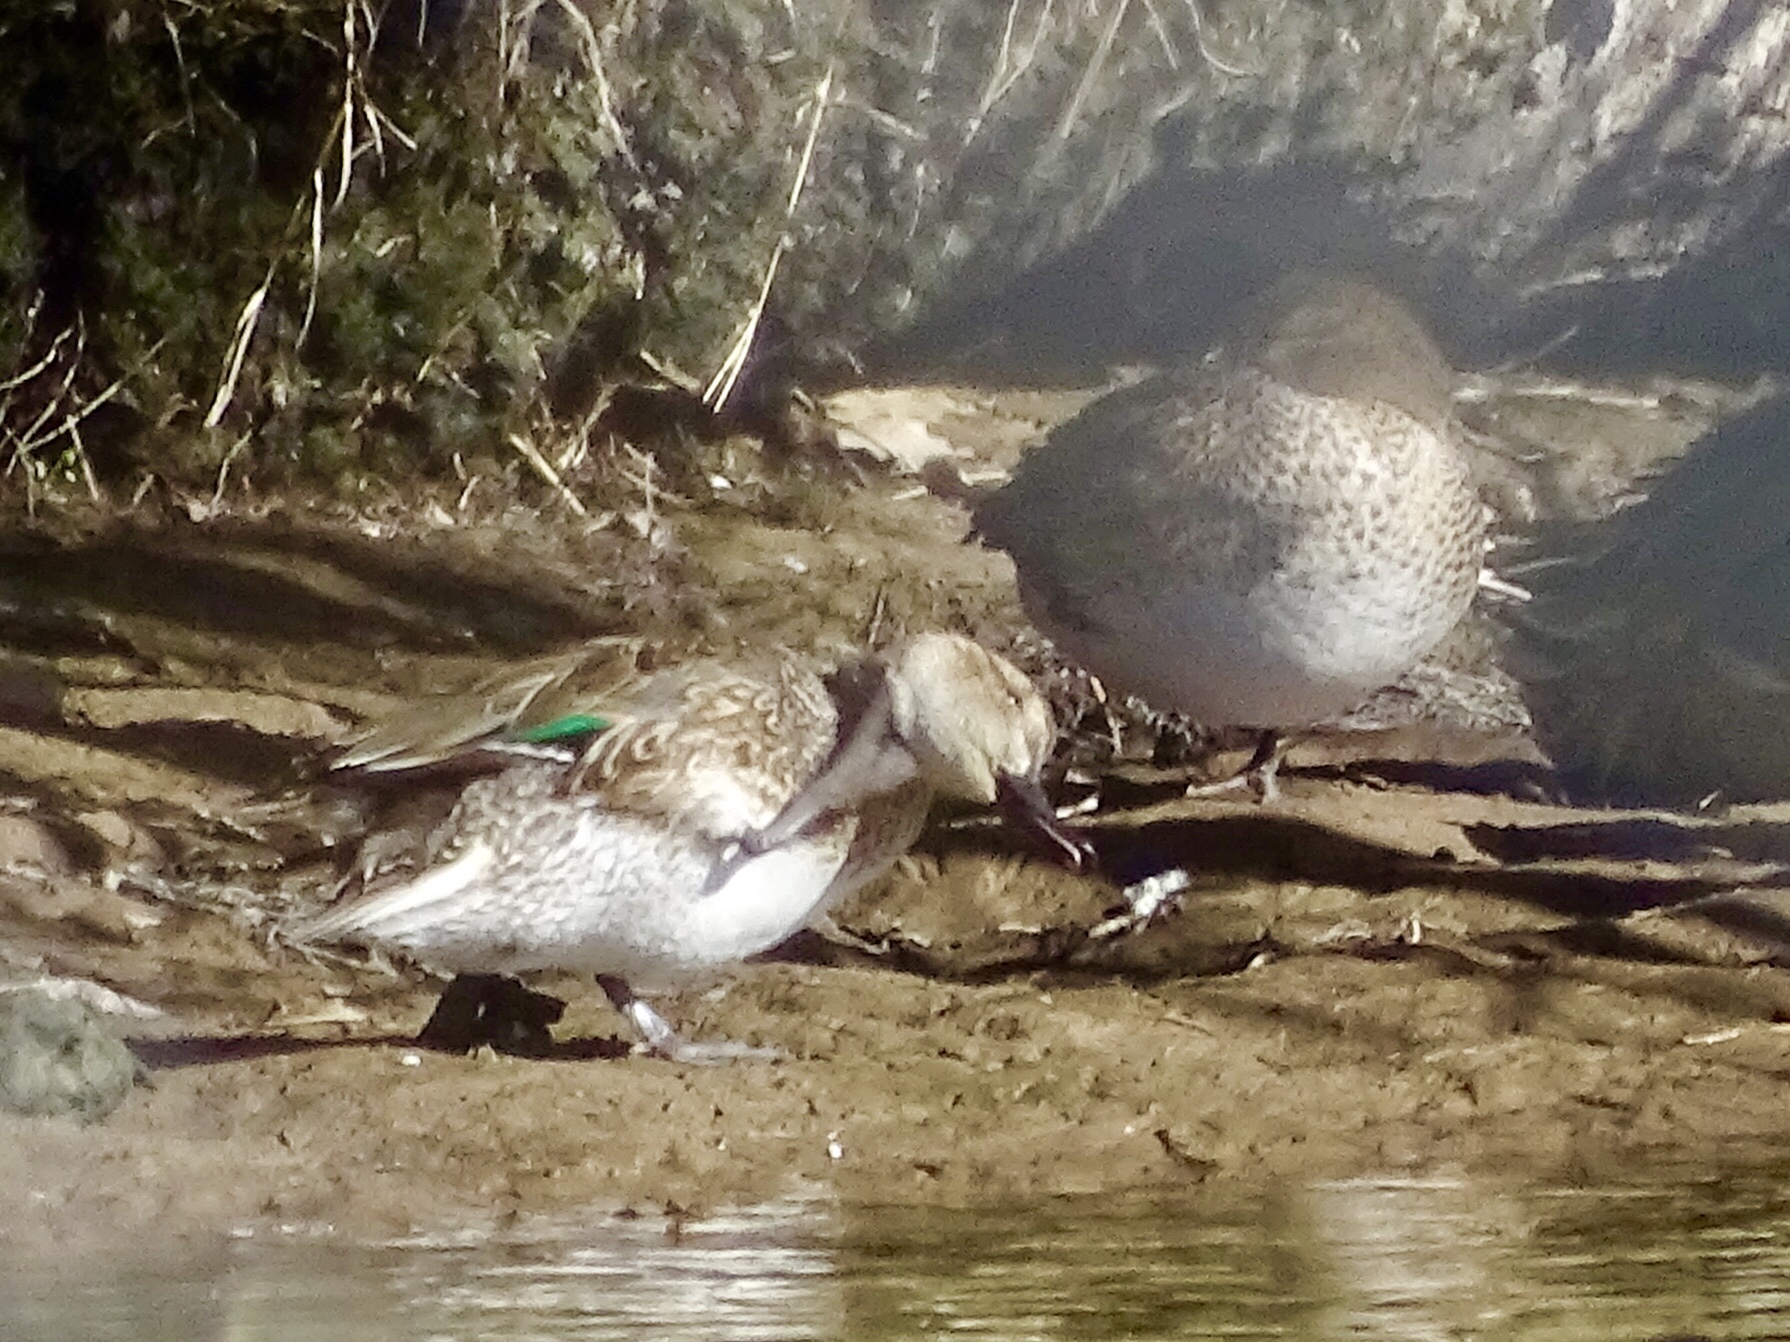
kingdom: Animalia
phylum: Chordata
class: Aves
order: Anseriformes
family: Anatidae
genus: Anas
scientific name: Anas crecca
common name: Eurasian teal
